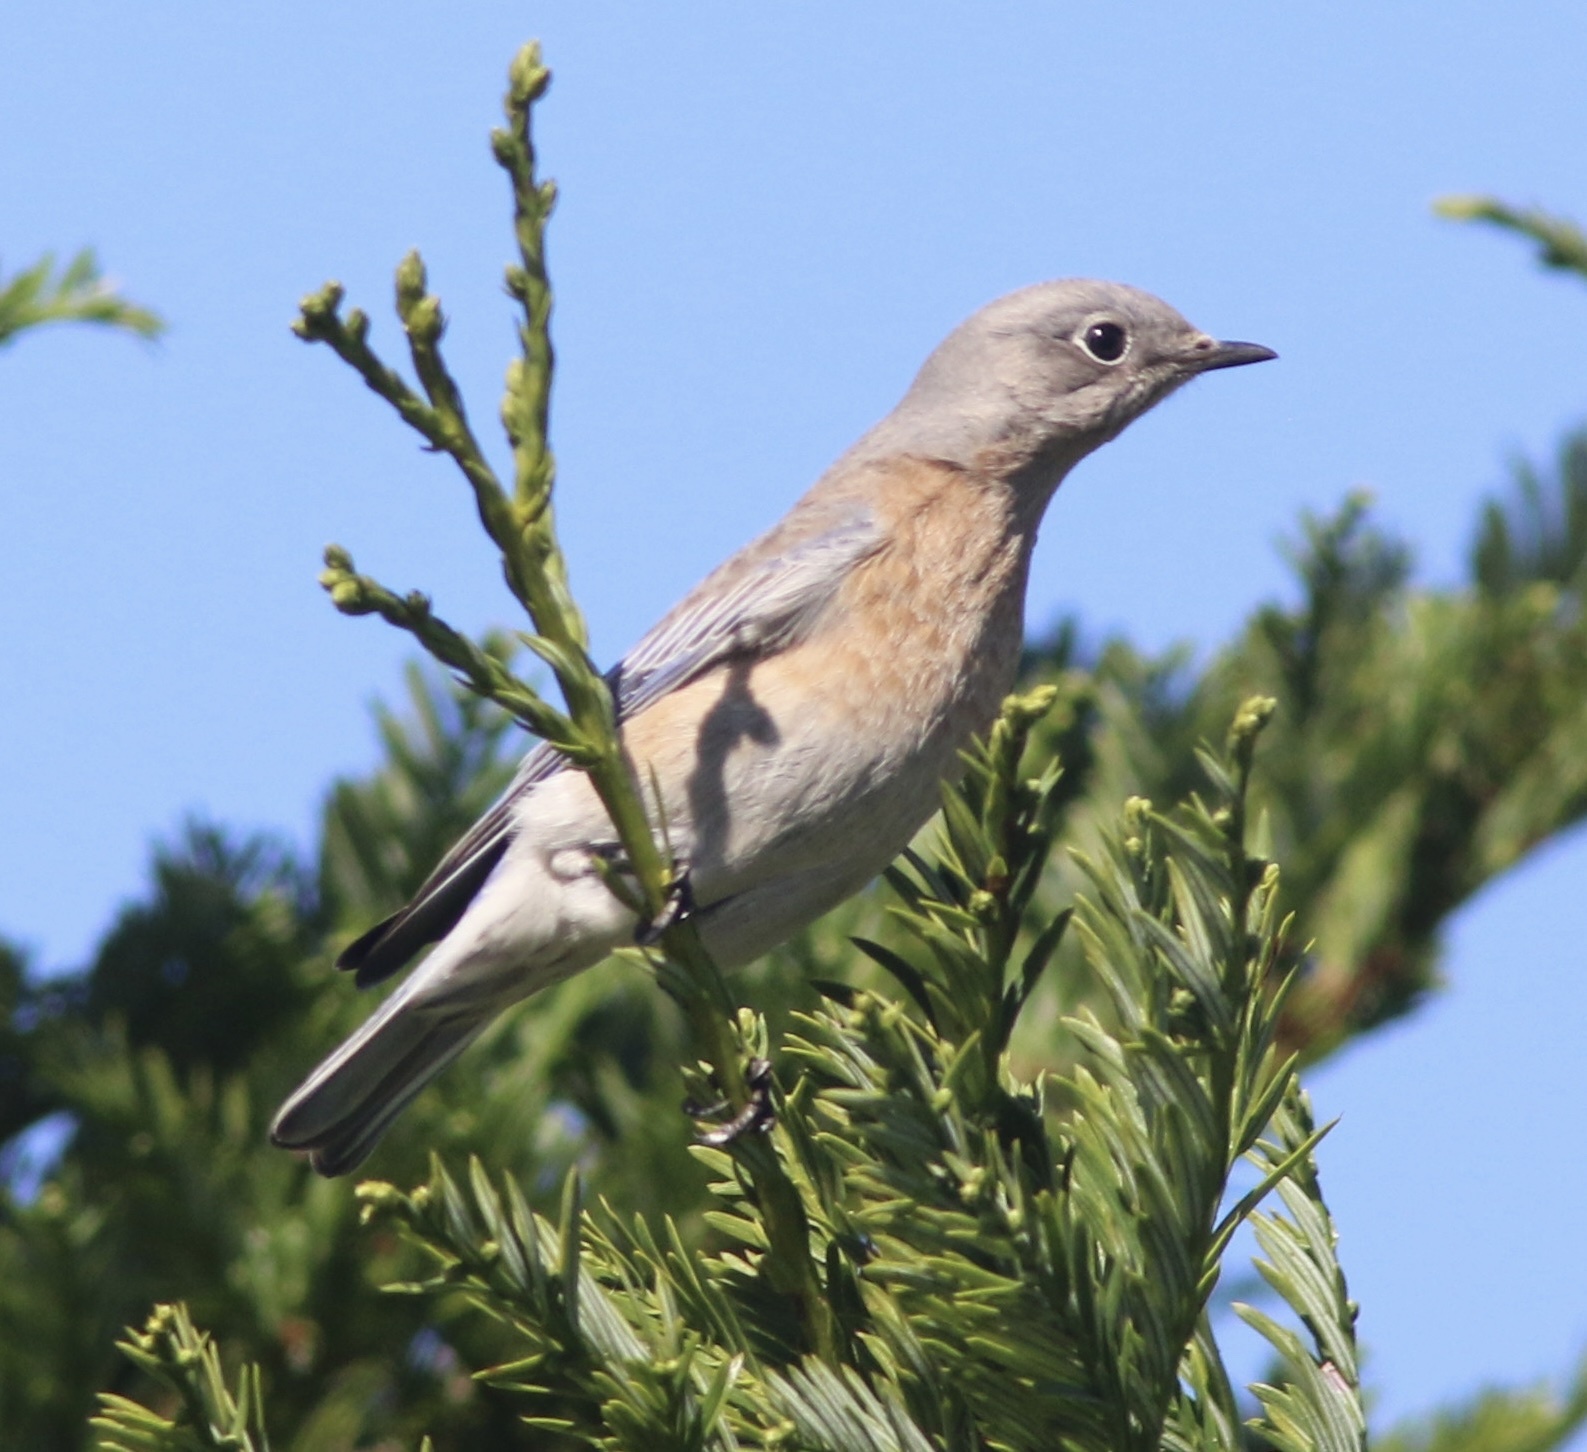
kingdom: Animalia
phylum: Chordata
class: Aves
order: Passeriformes
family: Turdidae
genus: Sialia
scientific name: Sialia mexicana
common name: Western bluebird
